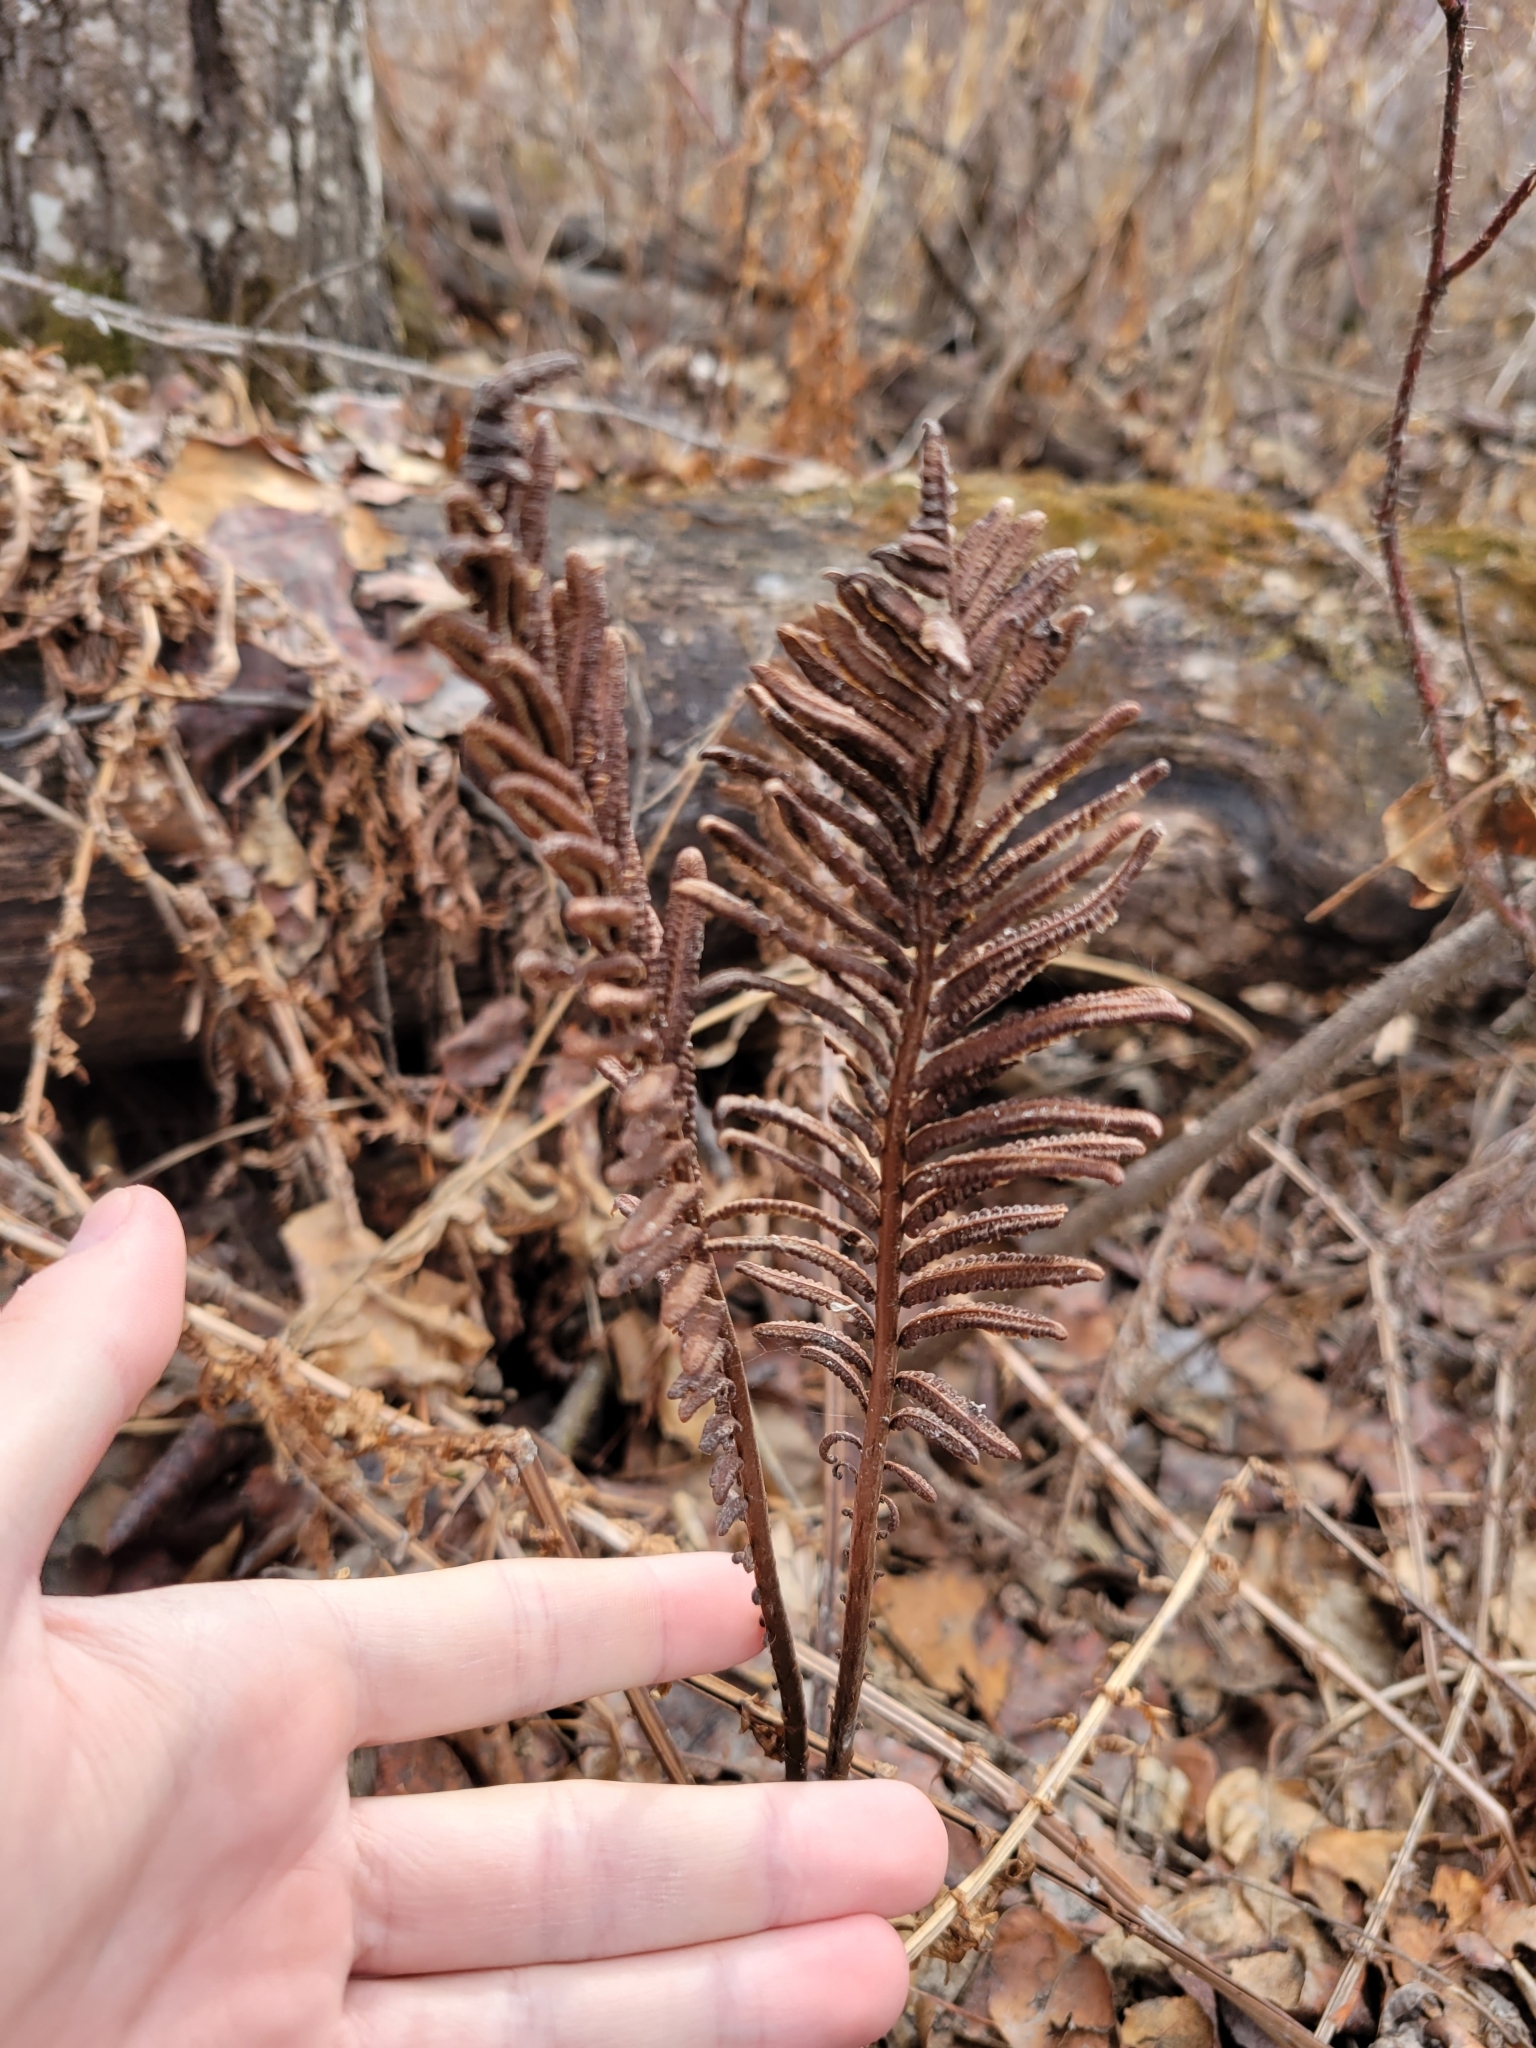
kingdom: Plantae
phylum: Tracheophyta
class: Polypodiopsida
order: Polypodiales
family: Onocleaceae
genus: Matteuccia
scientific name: Matteuccia struthiopteris
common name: Ostrich fern
